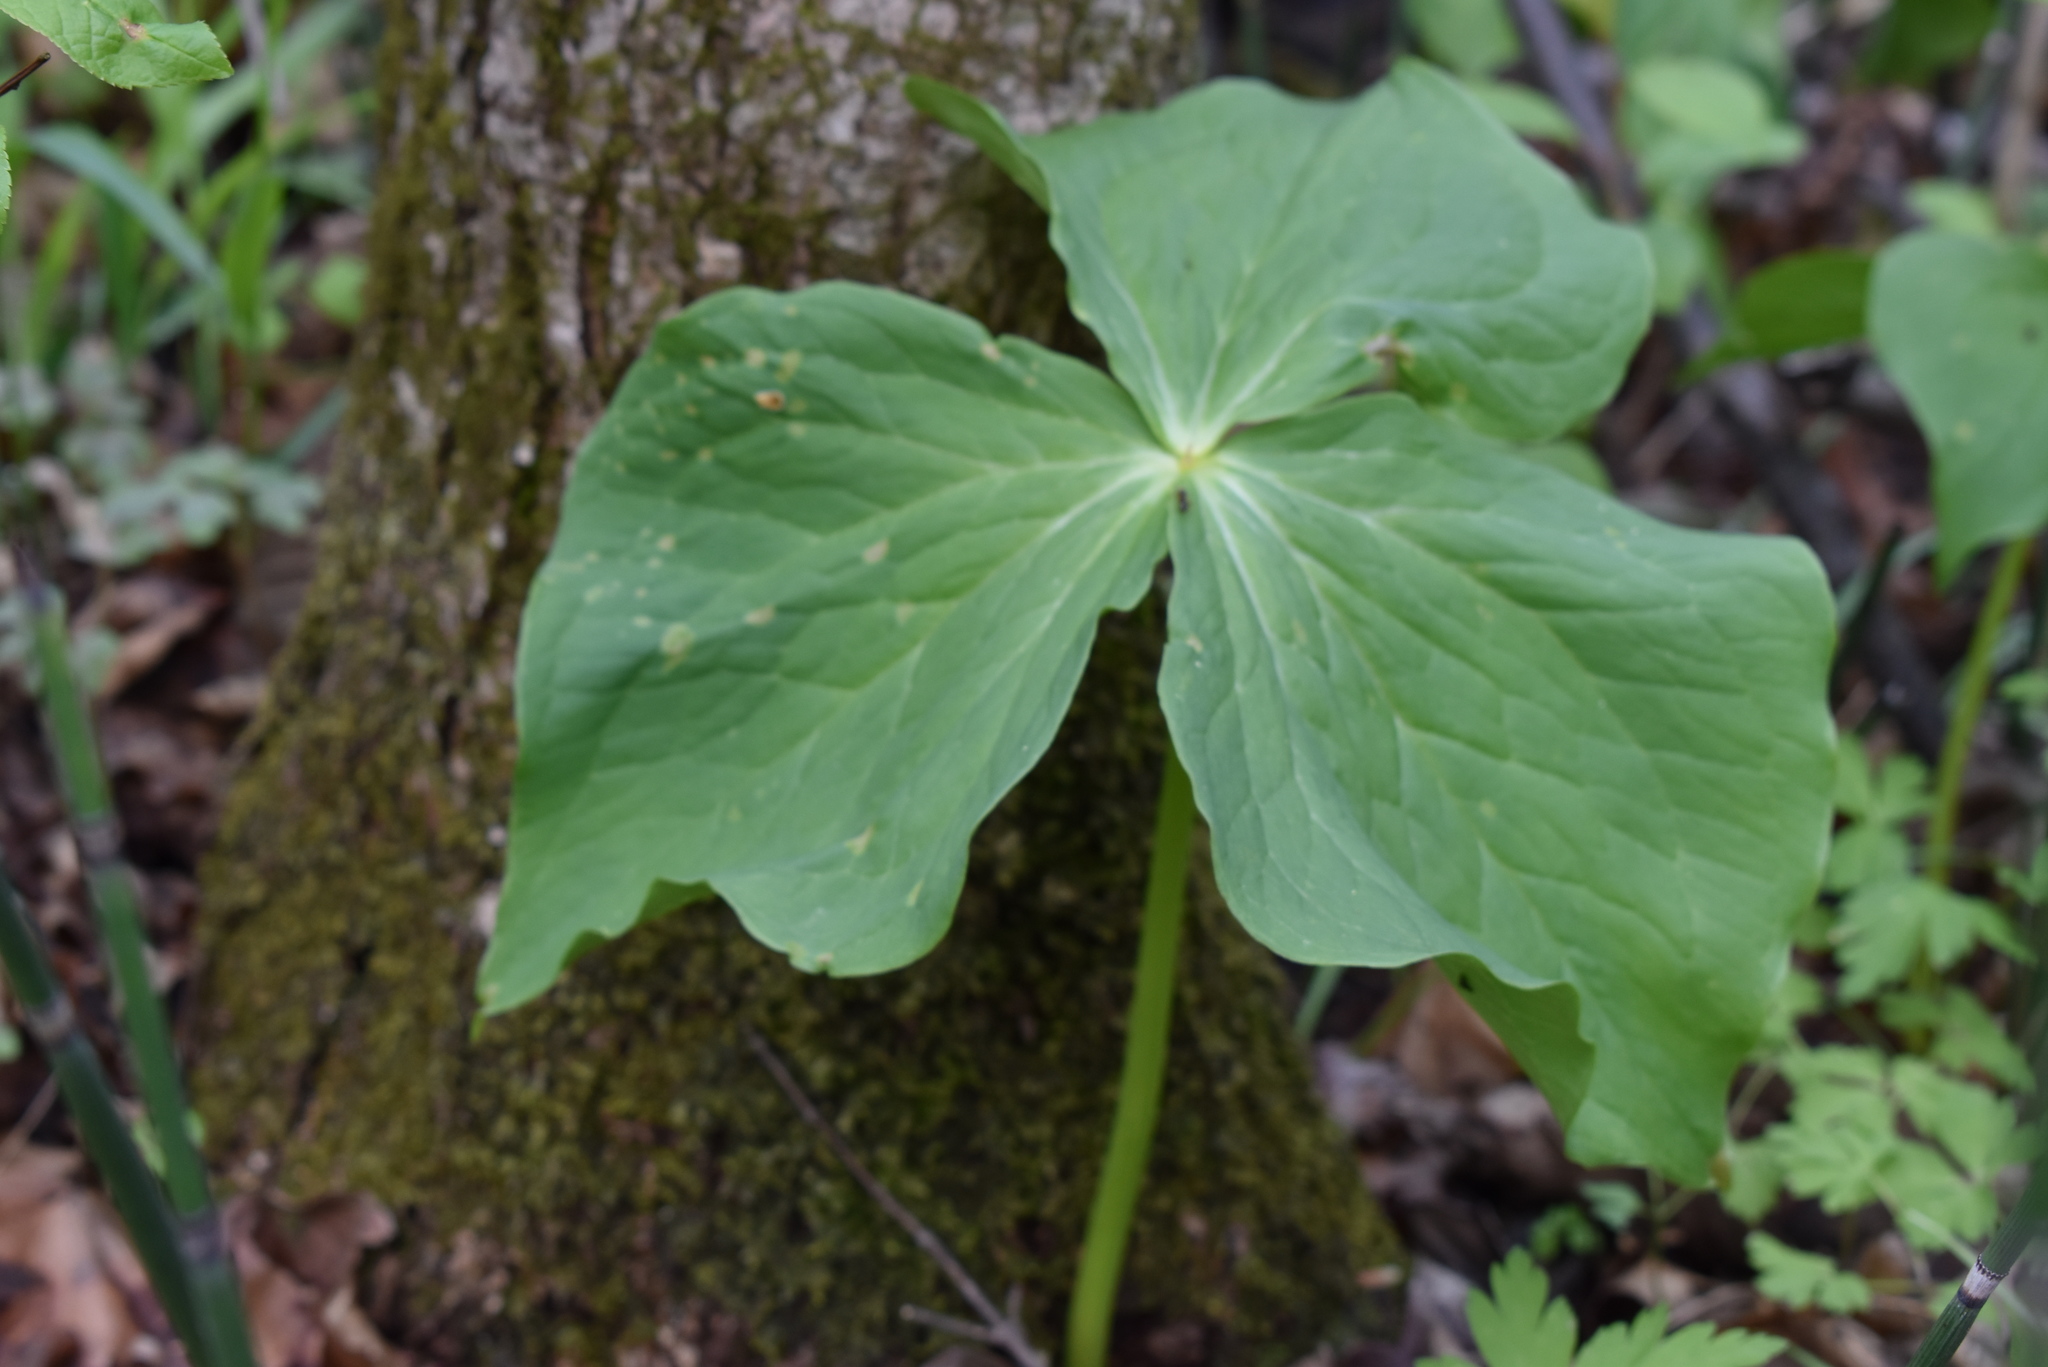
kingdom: Plantae
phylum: Tracheophyta
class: Liliopsida
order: Liliales
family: Melanthiaceae
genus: Trillium
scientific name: Trillium komarovii
